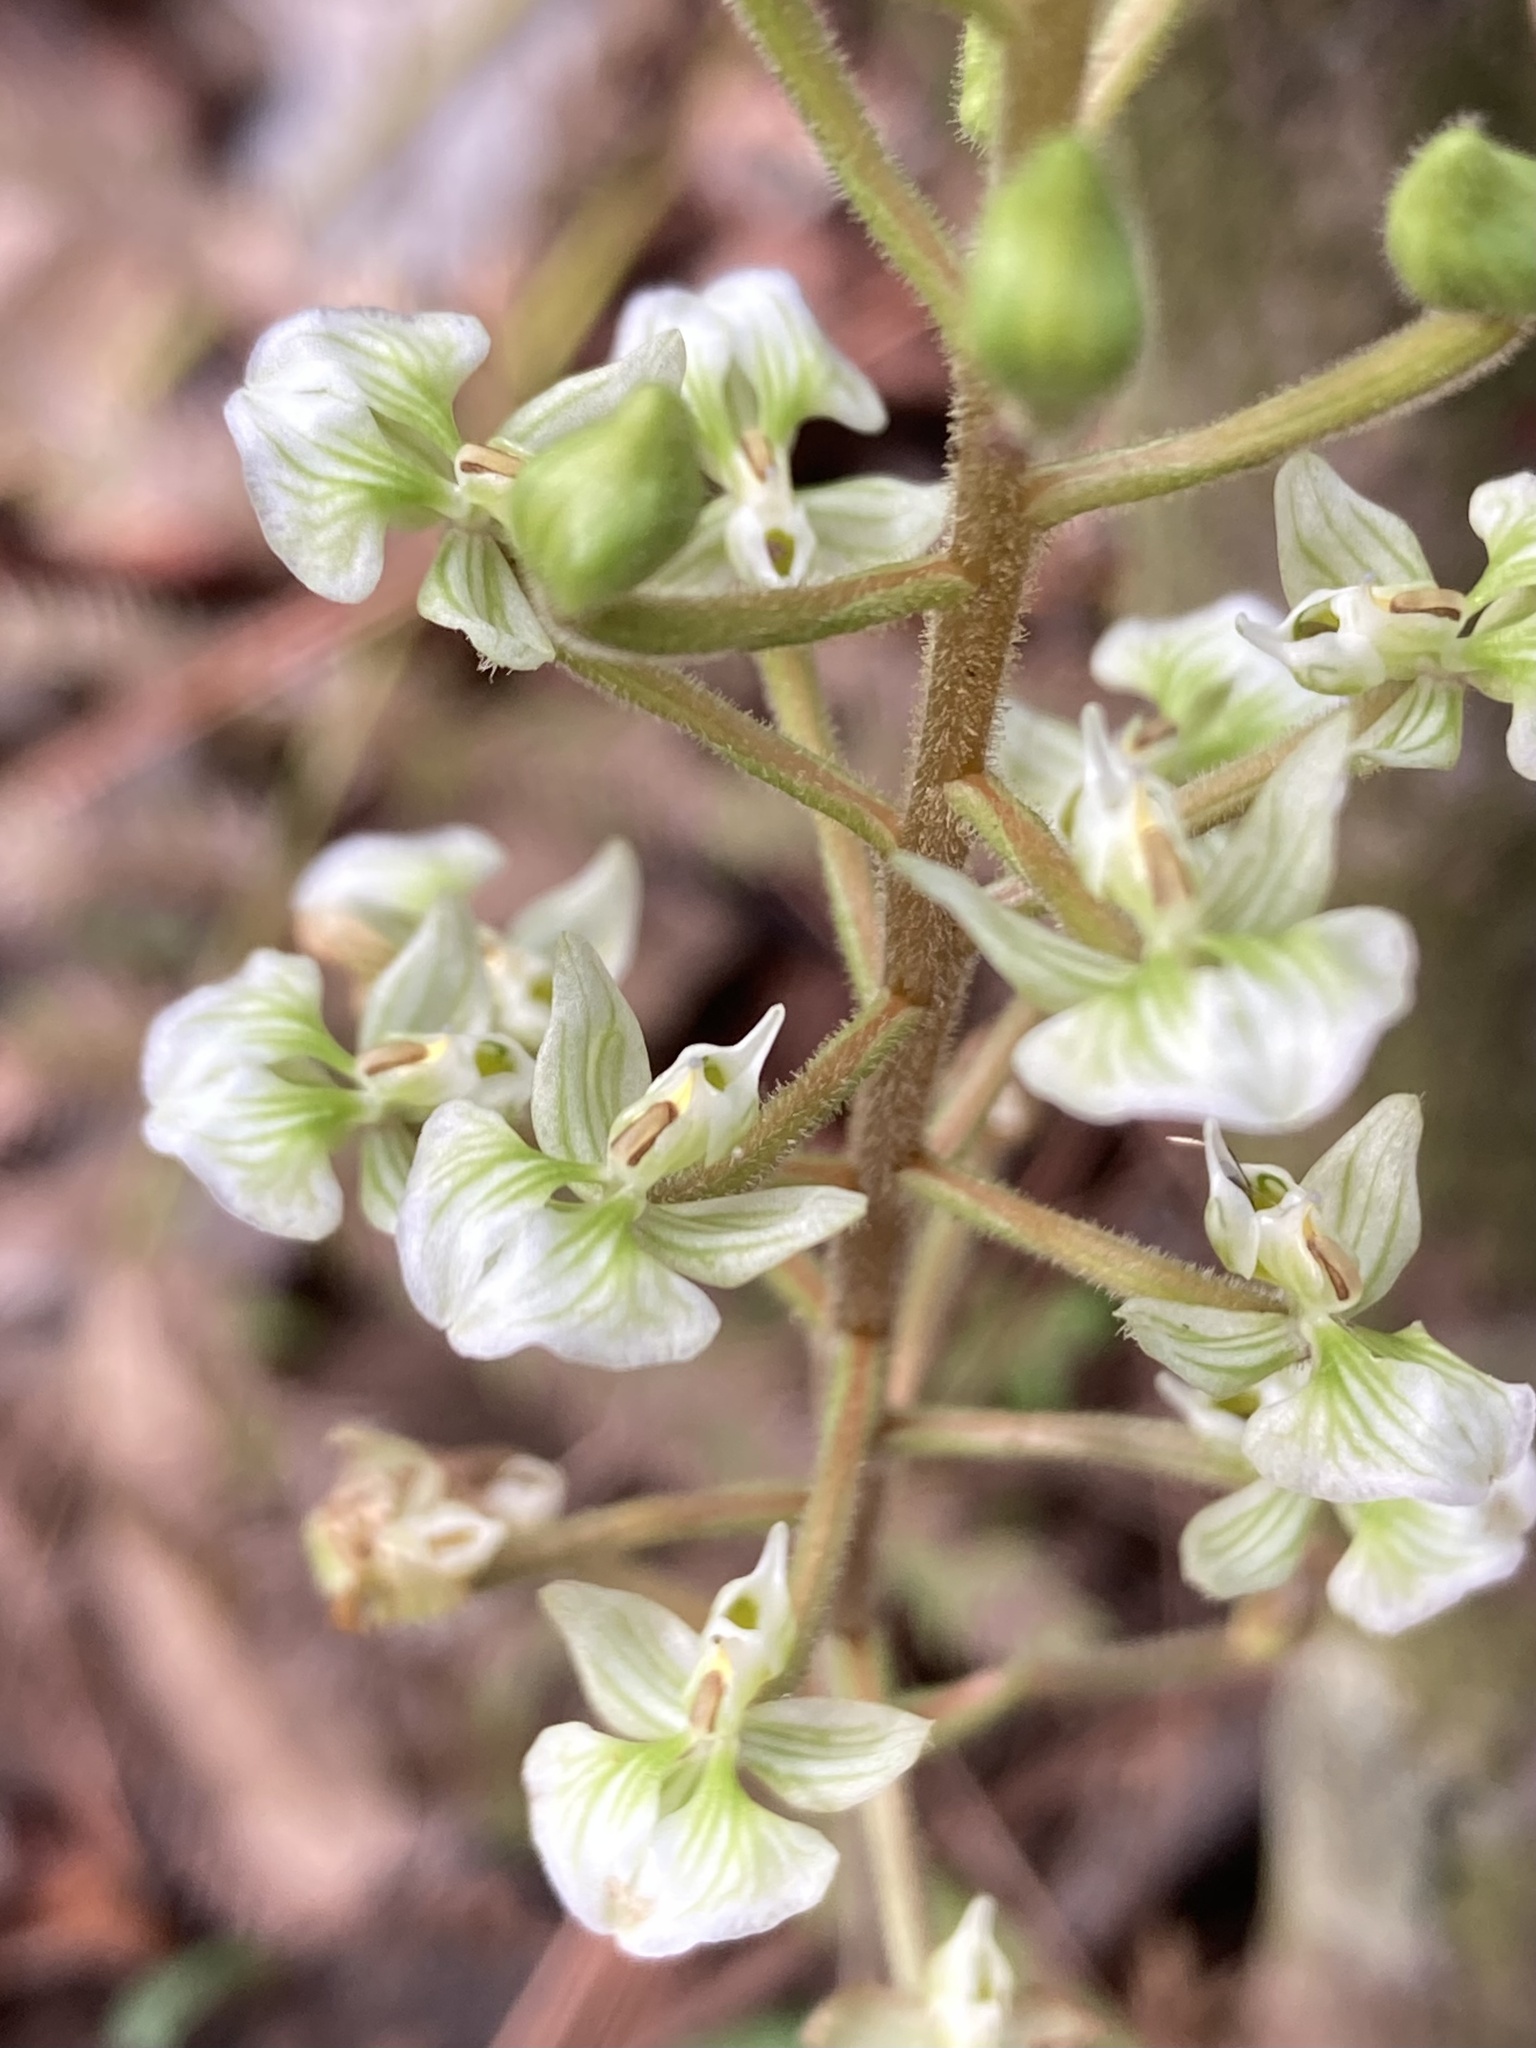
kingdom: Plantae
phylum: Tracheophyta
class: Liliopsida
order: Asparagales
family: Orchidaceae
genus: Ponthieva
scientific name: Ponthieva racemosa
